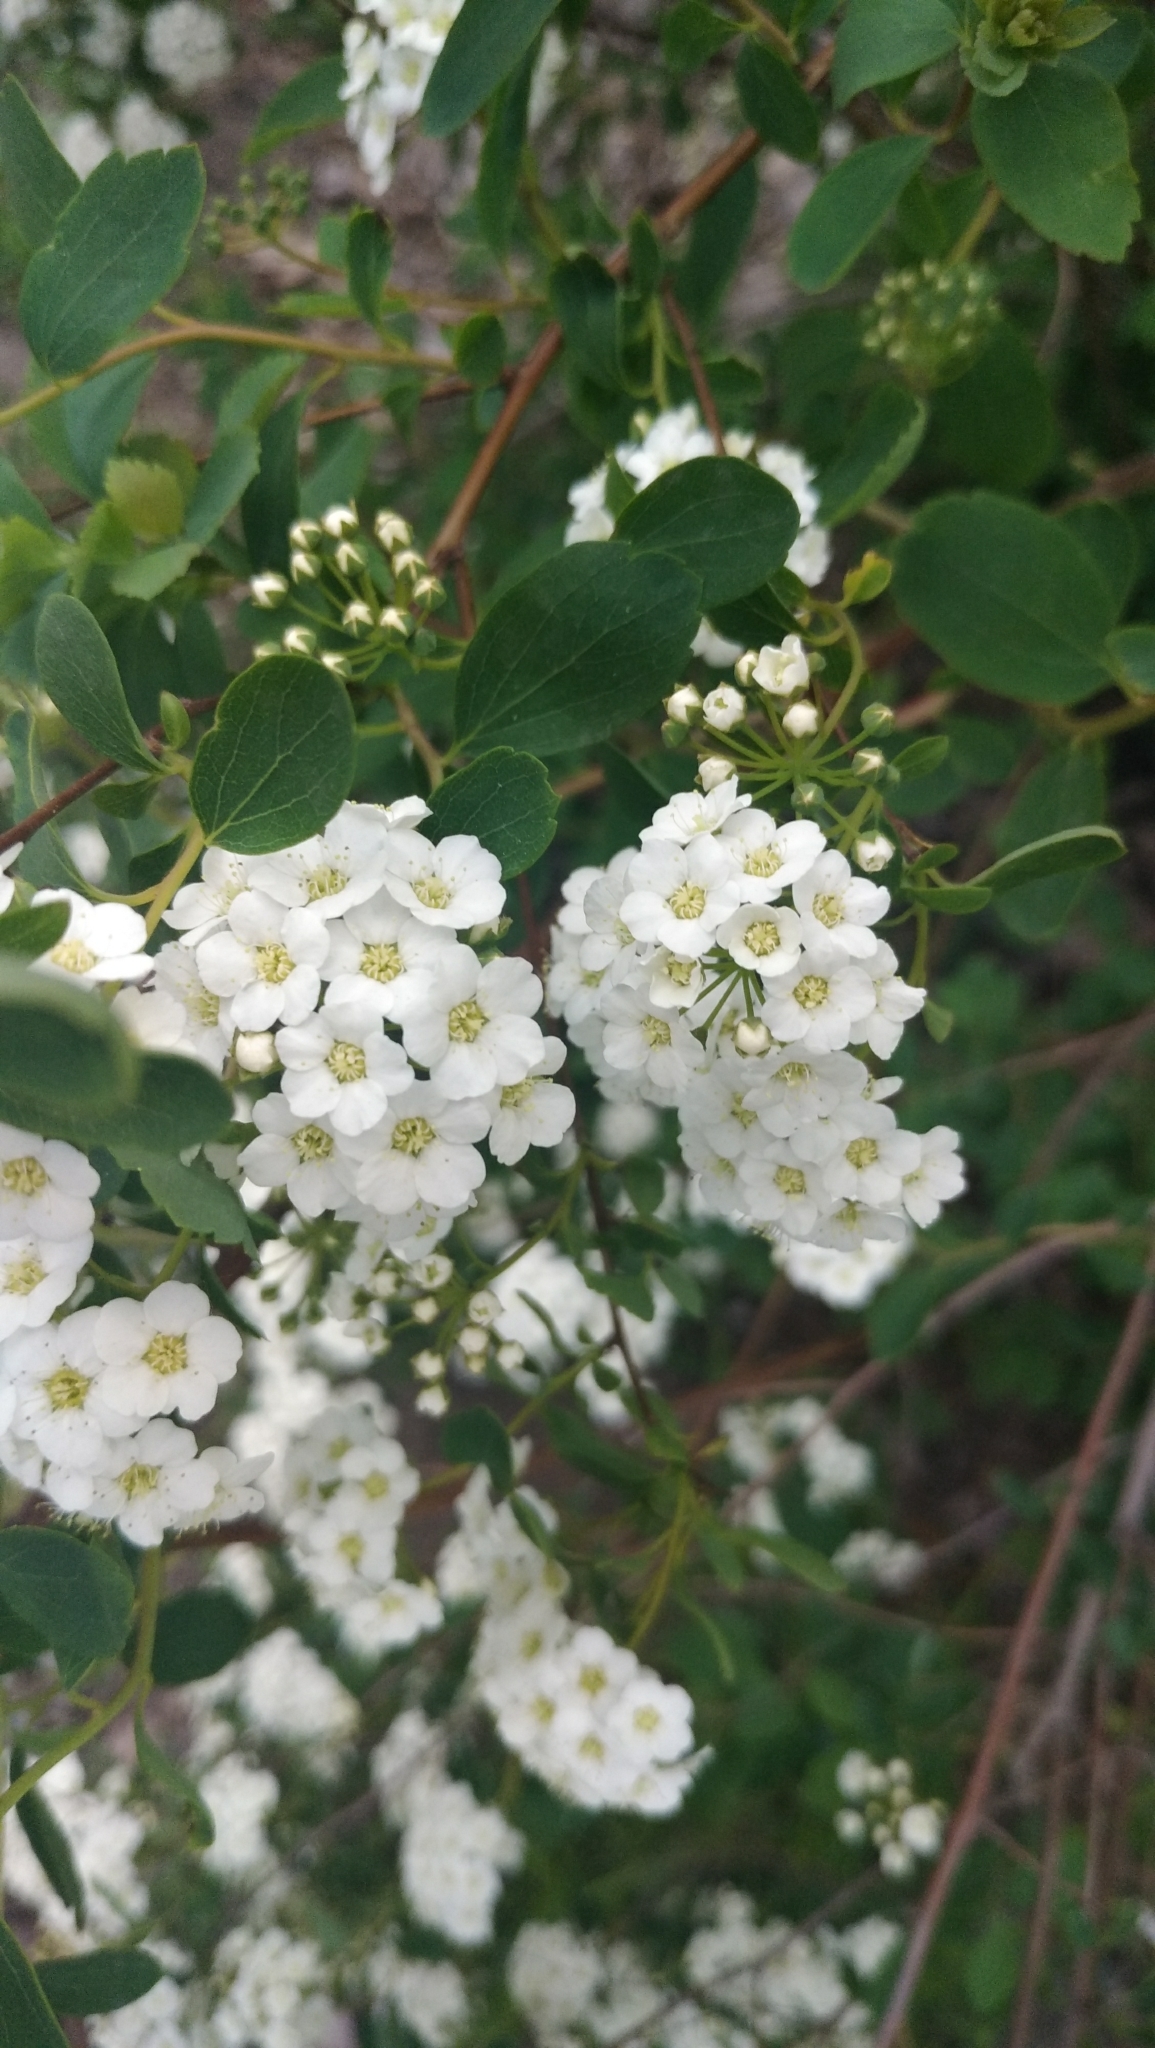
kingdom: Plantae
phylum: Tracheophyta
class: Magnoliopsida
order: Rosales
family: Rosaceae
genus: Spiraea
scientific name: Spiraea vanhouttei
